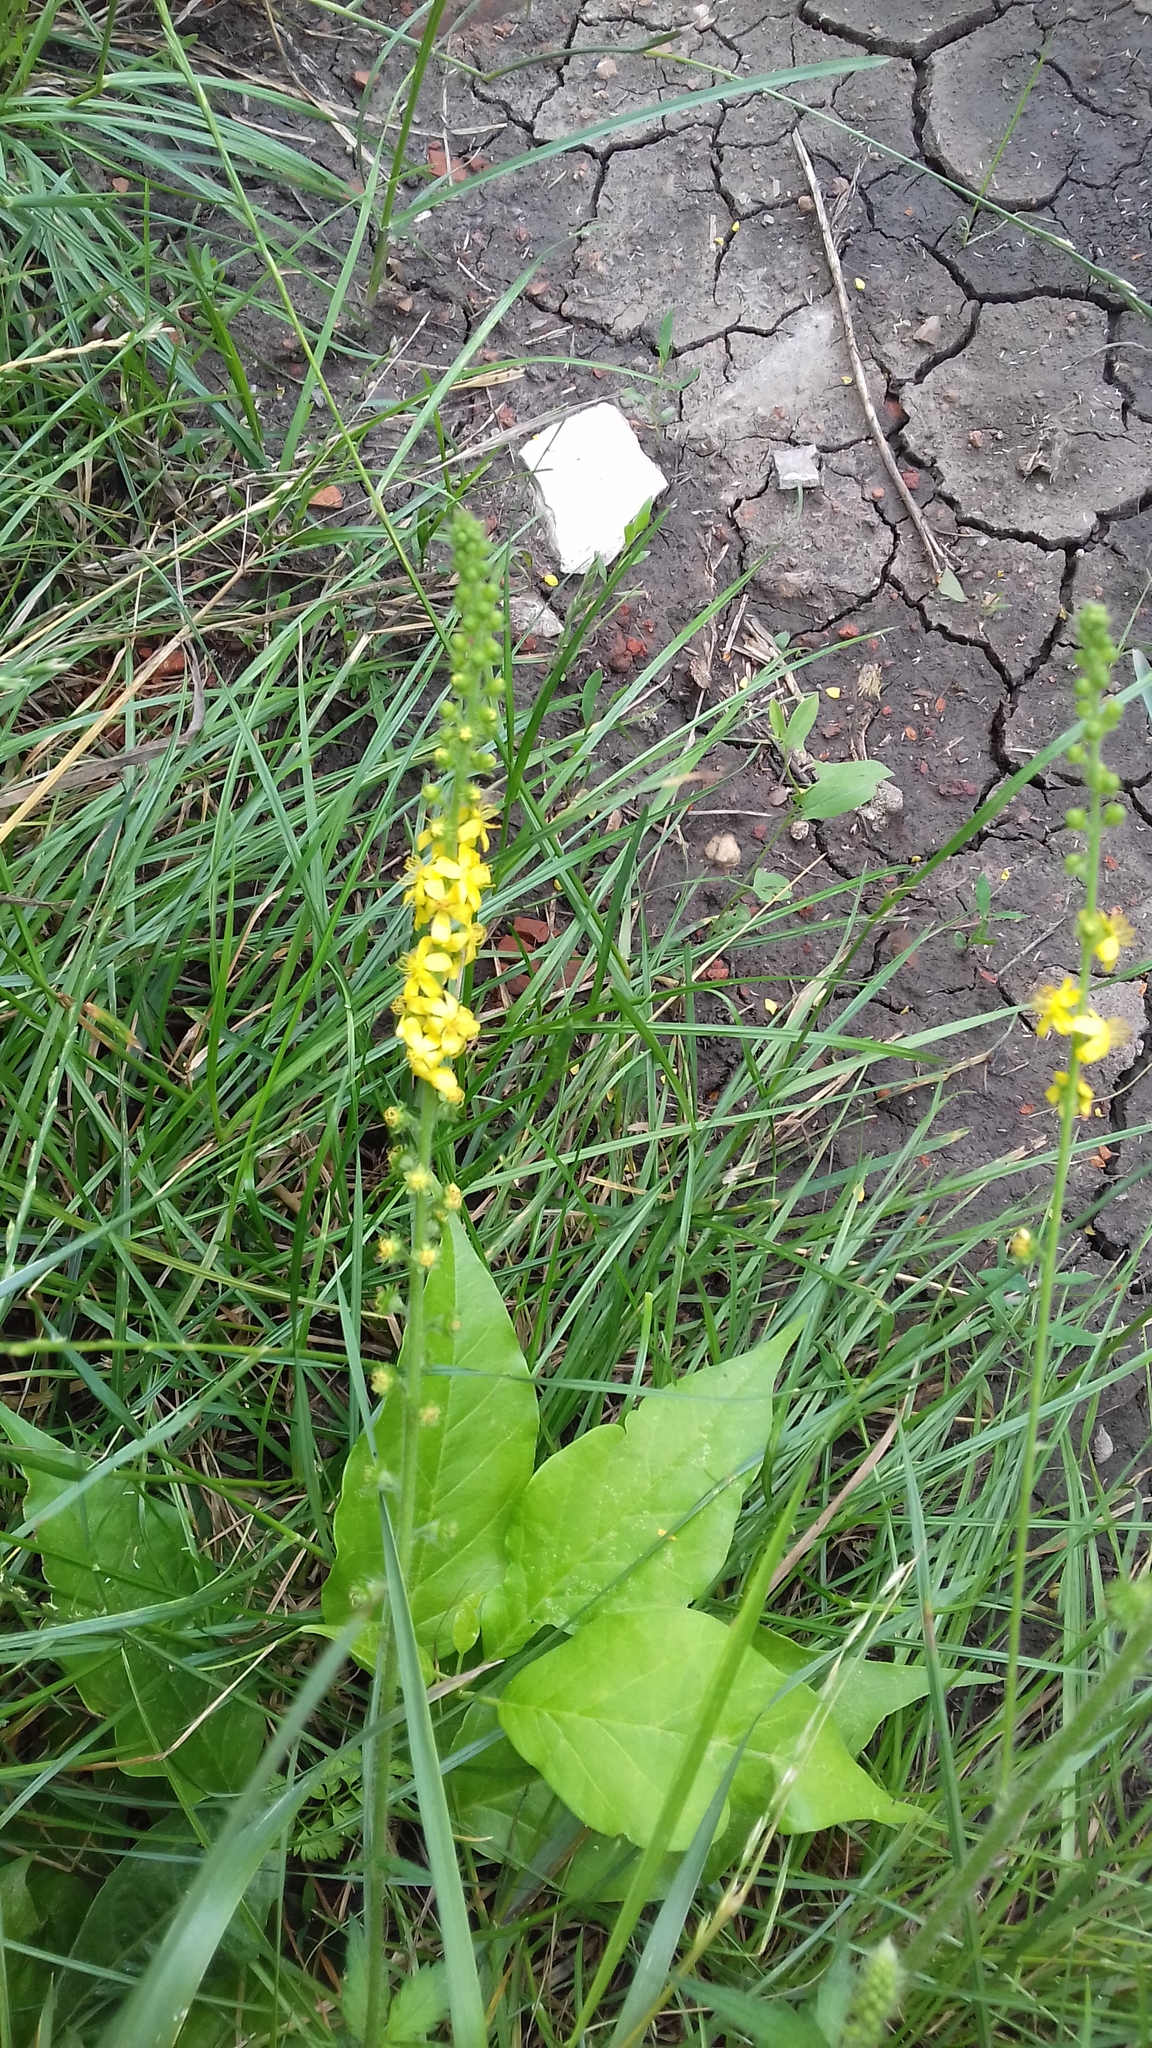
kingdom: Plantae
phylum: Tracheophyta
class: Magnoliopsida
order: Rosales
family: Rosaceae
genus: Agrimonia
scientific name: Agrimonia eupatoria
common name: Agrimony
